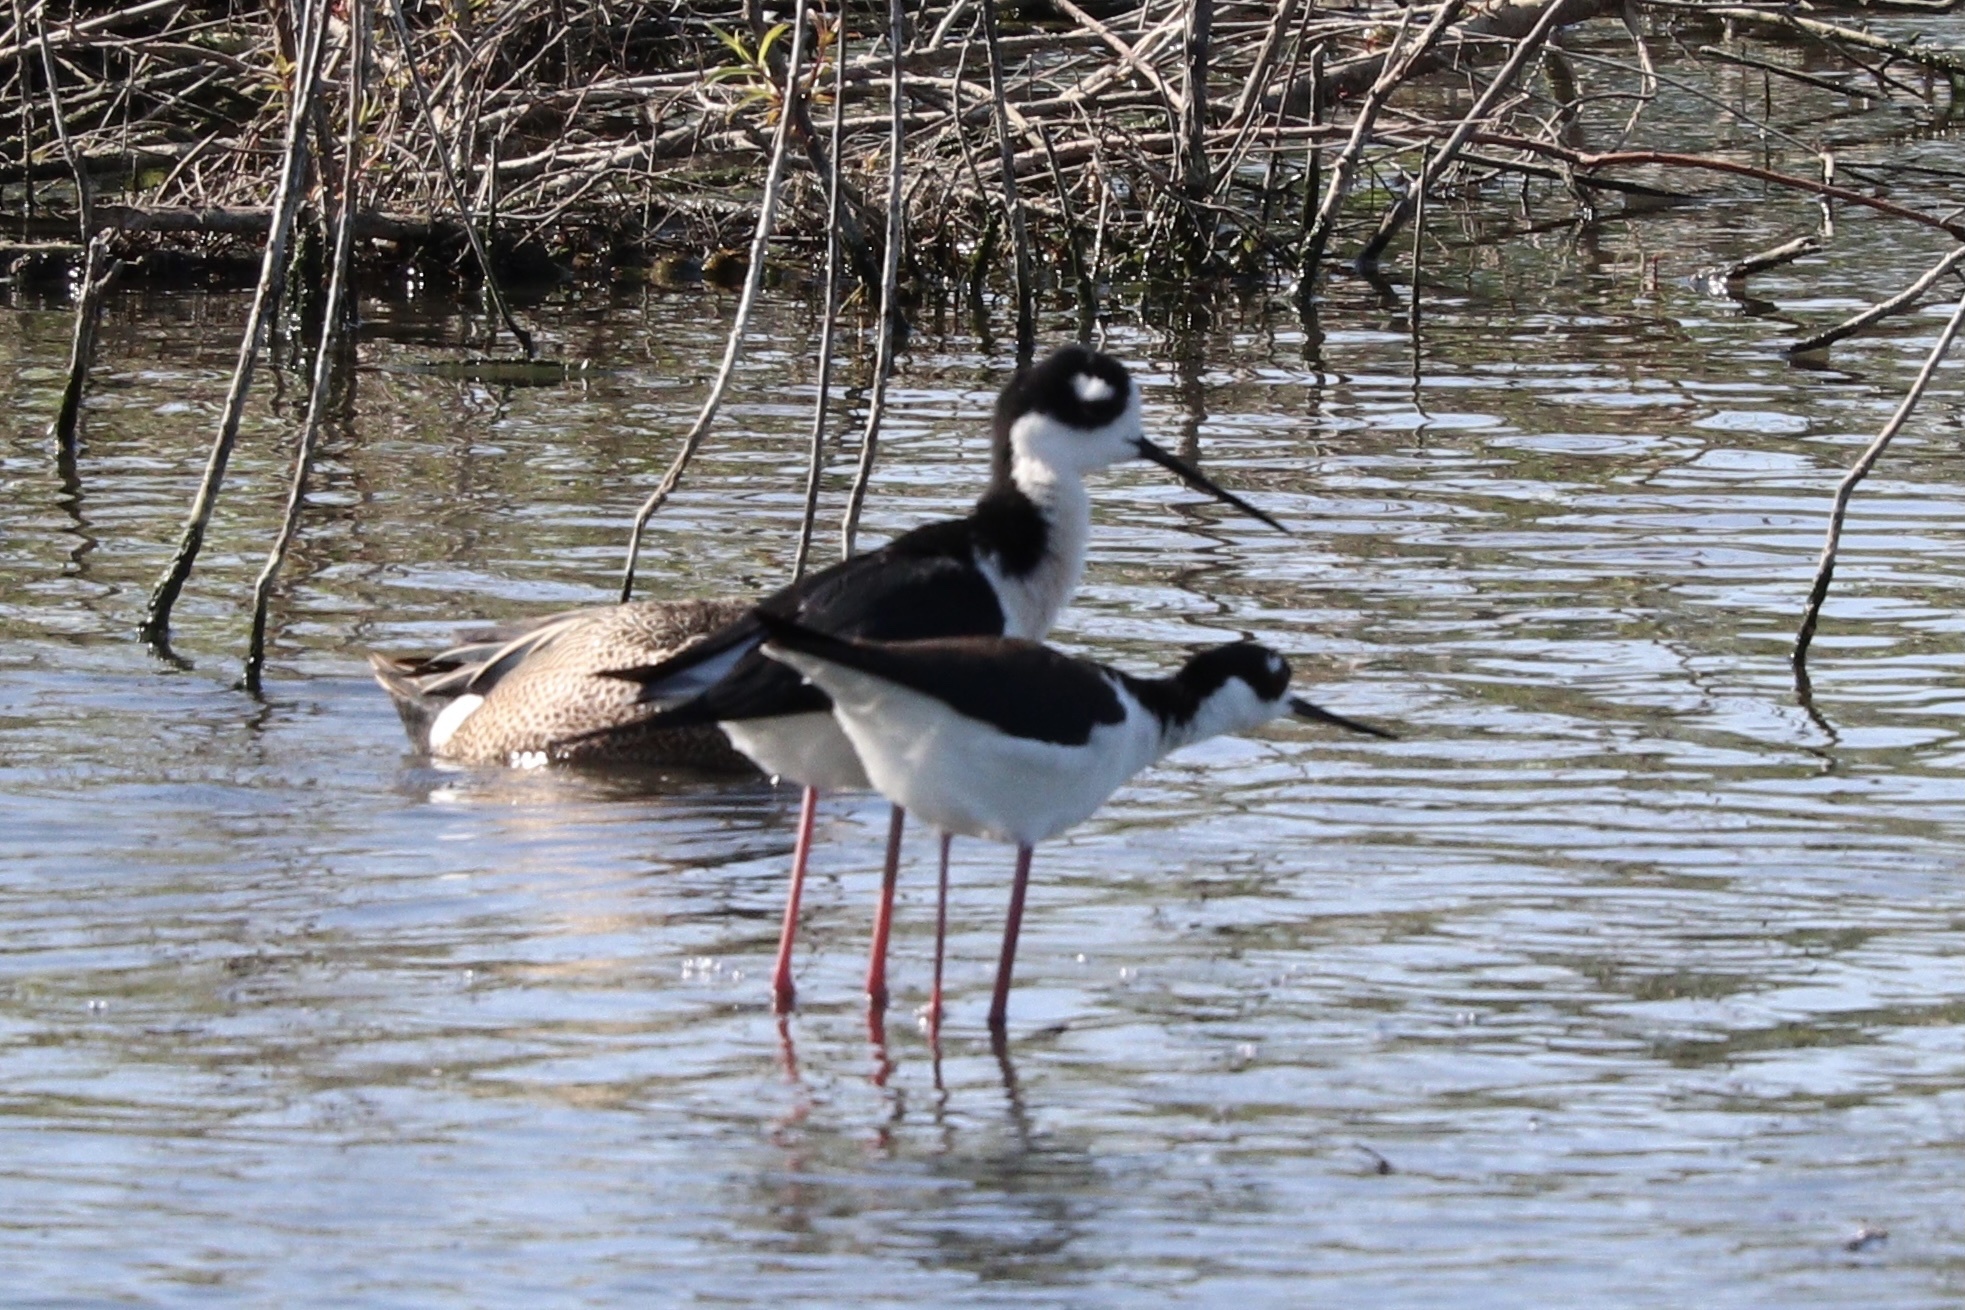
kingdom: Animalia
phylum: Chordata
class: Aves
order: Charadriiformes
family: Recurvirostridae
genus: Himantopus
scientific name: Himantopus mexicanus
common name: Black-necked stilt
